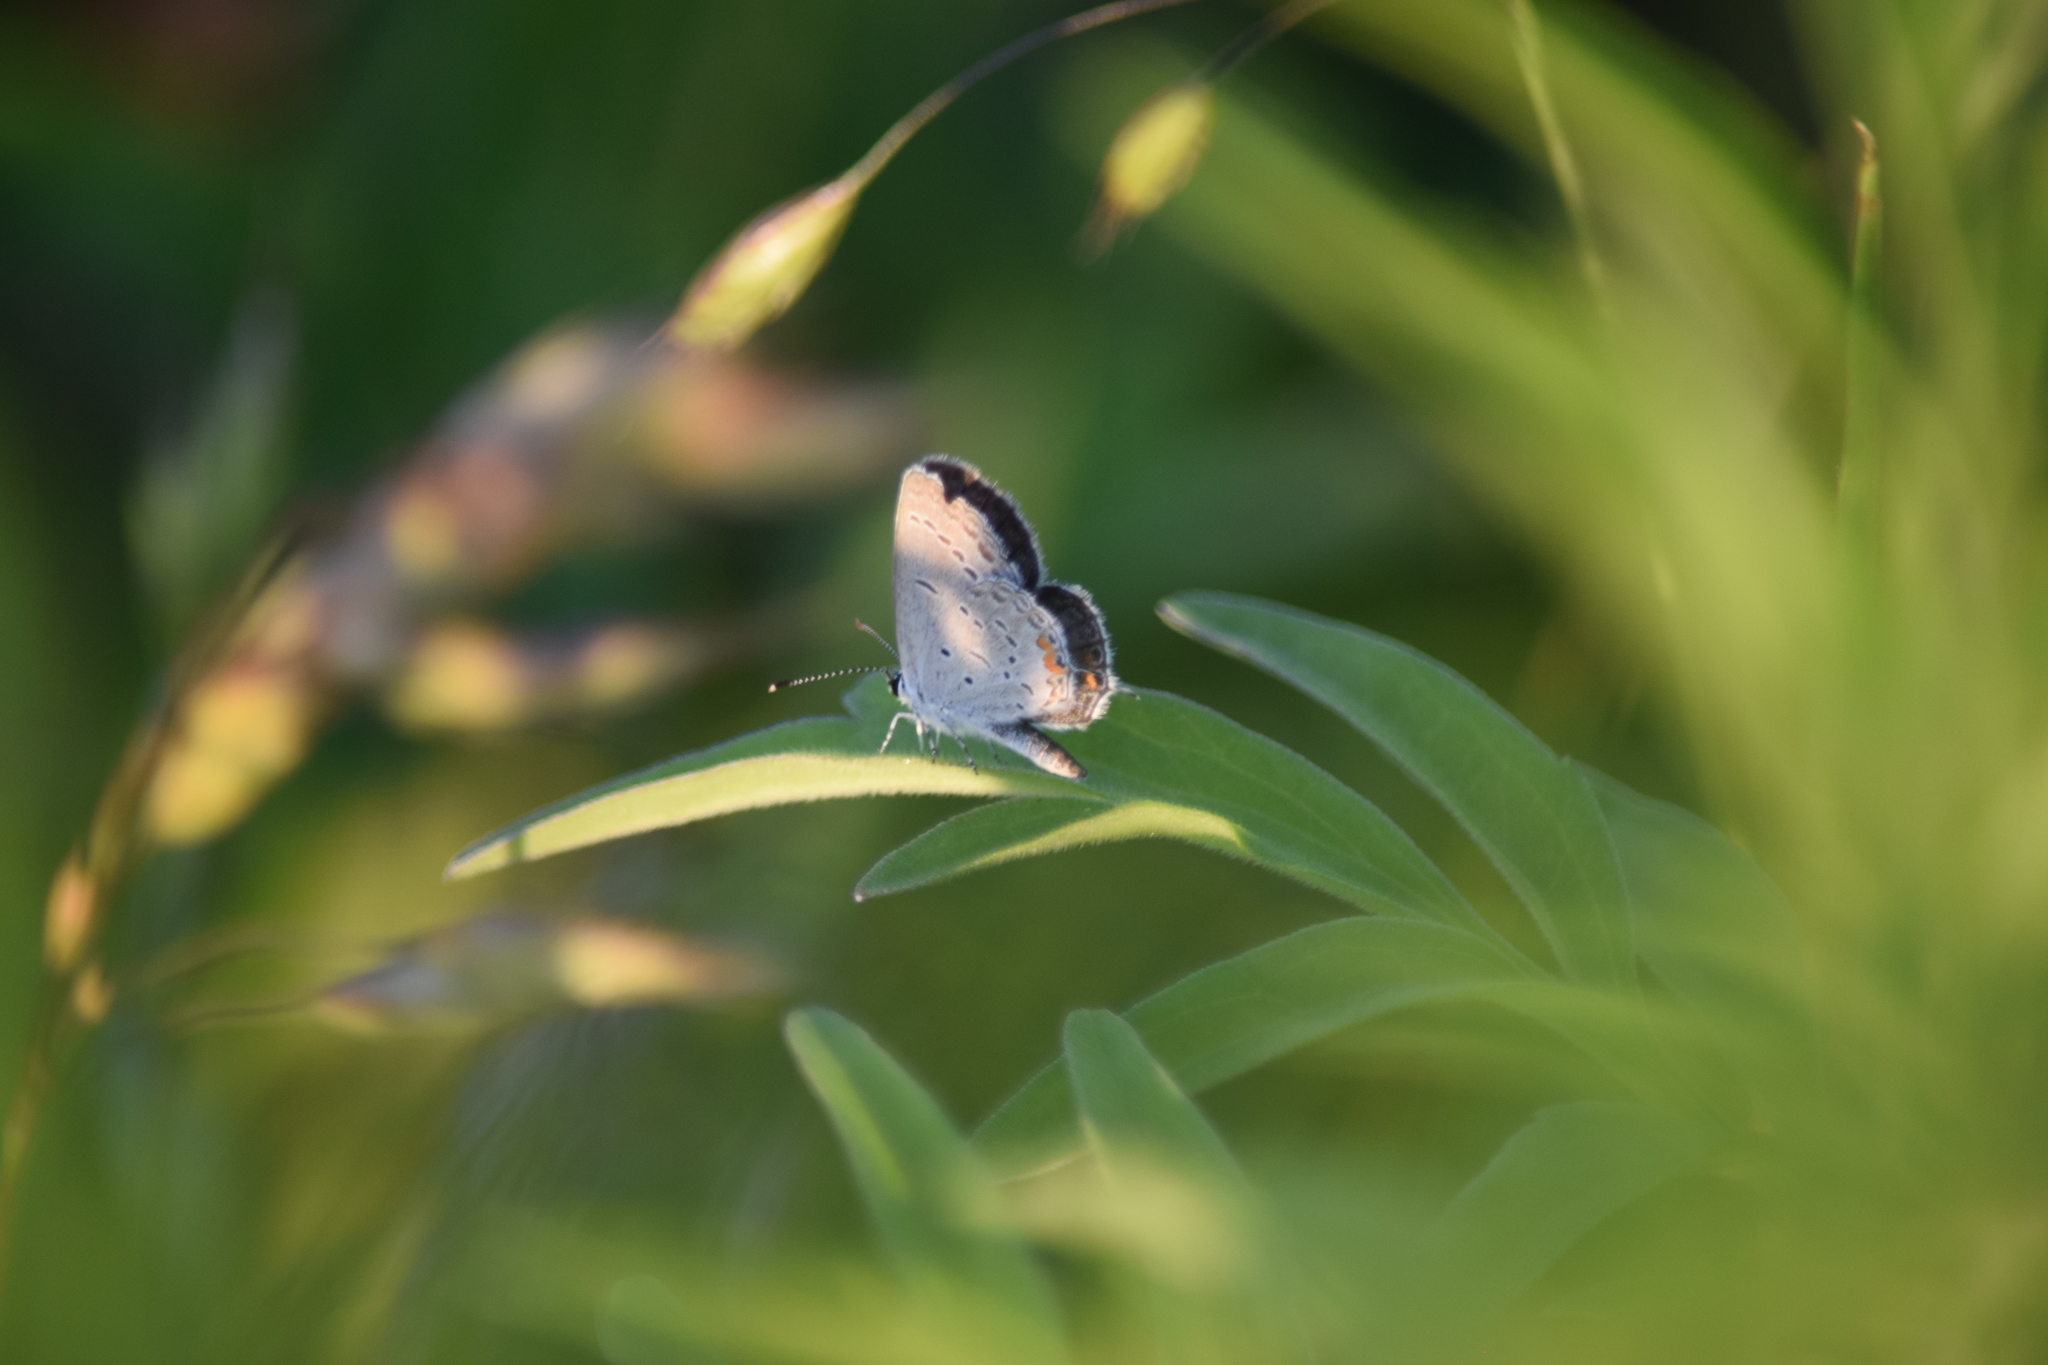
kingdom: Animalia
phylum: Arthropoda
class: Insecta
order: Lepidoptera
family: Lycaenidae
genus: Elkalyce
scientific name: Elkalyce comyntas
